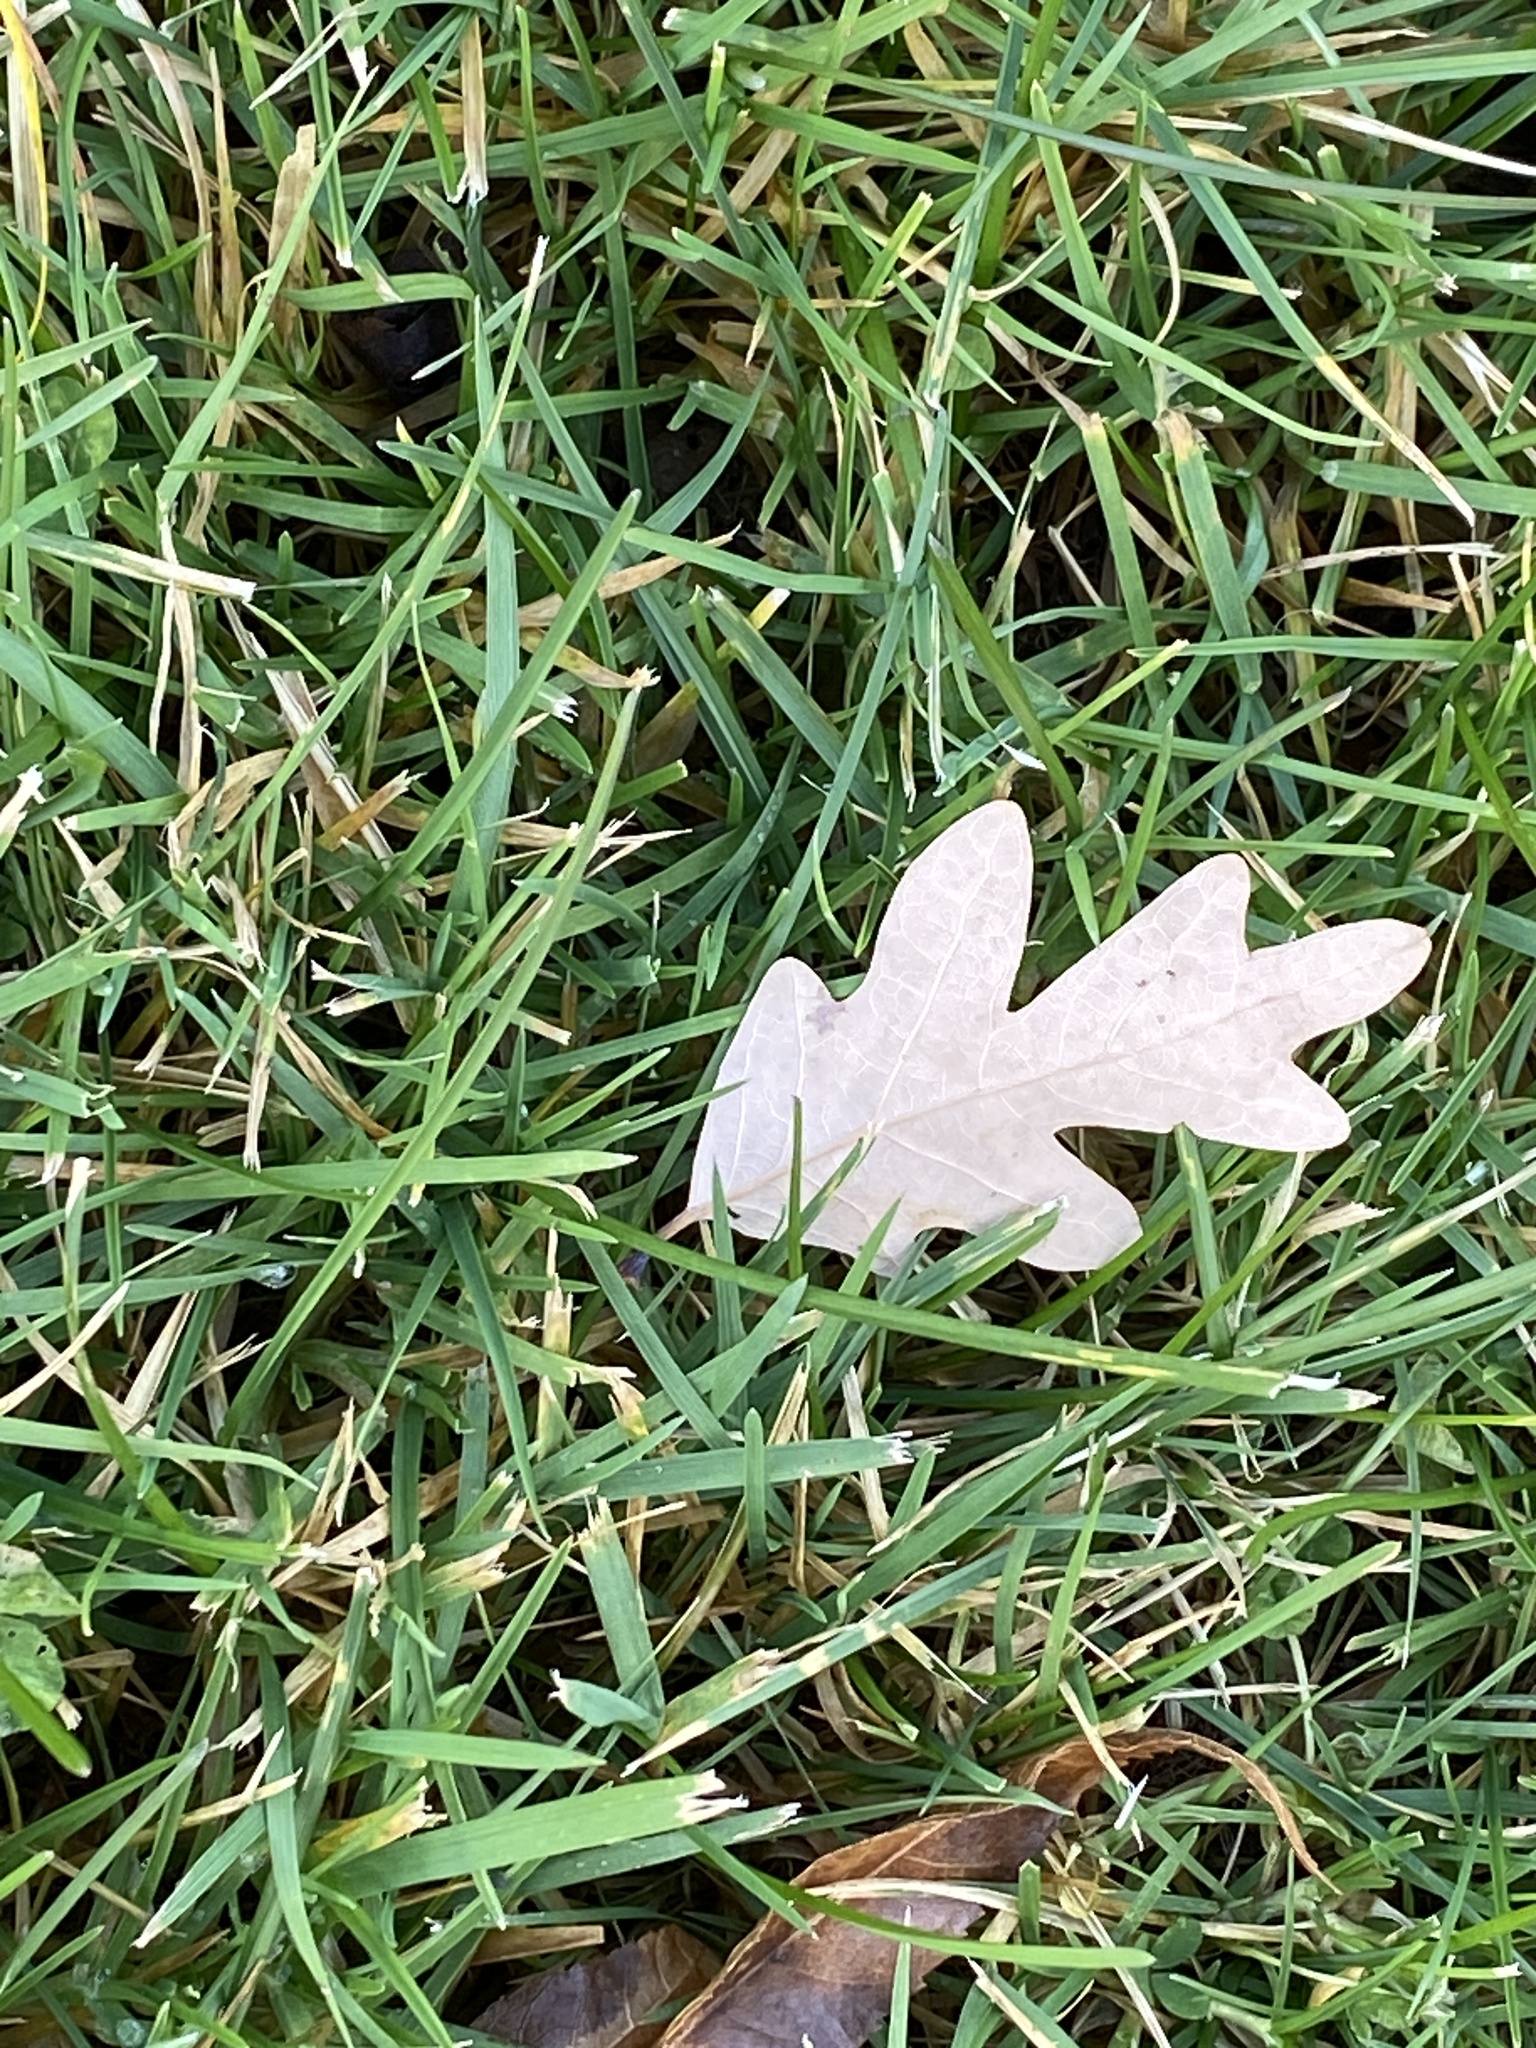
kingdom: Plantae
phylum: Tracheophyta
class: Magnoliopsida
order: Fagales
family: Fagaceae
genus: Quercus
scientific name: Quercus alba
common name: White oak
